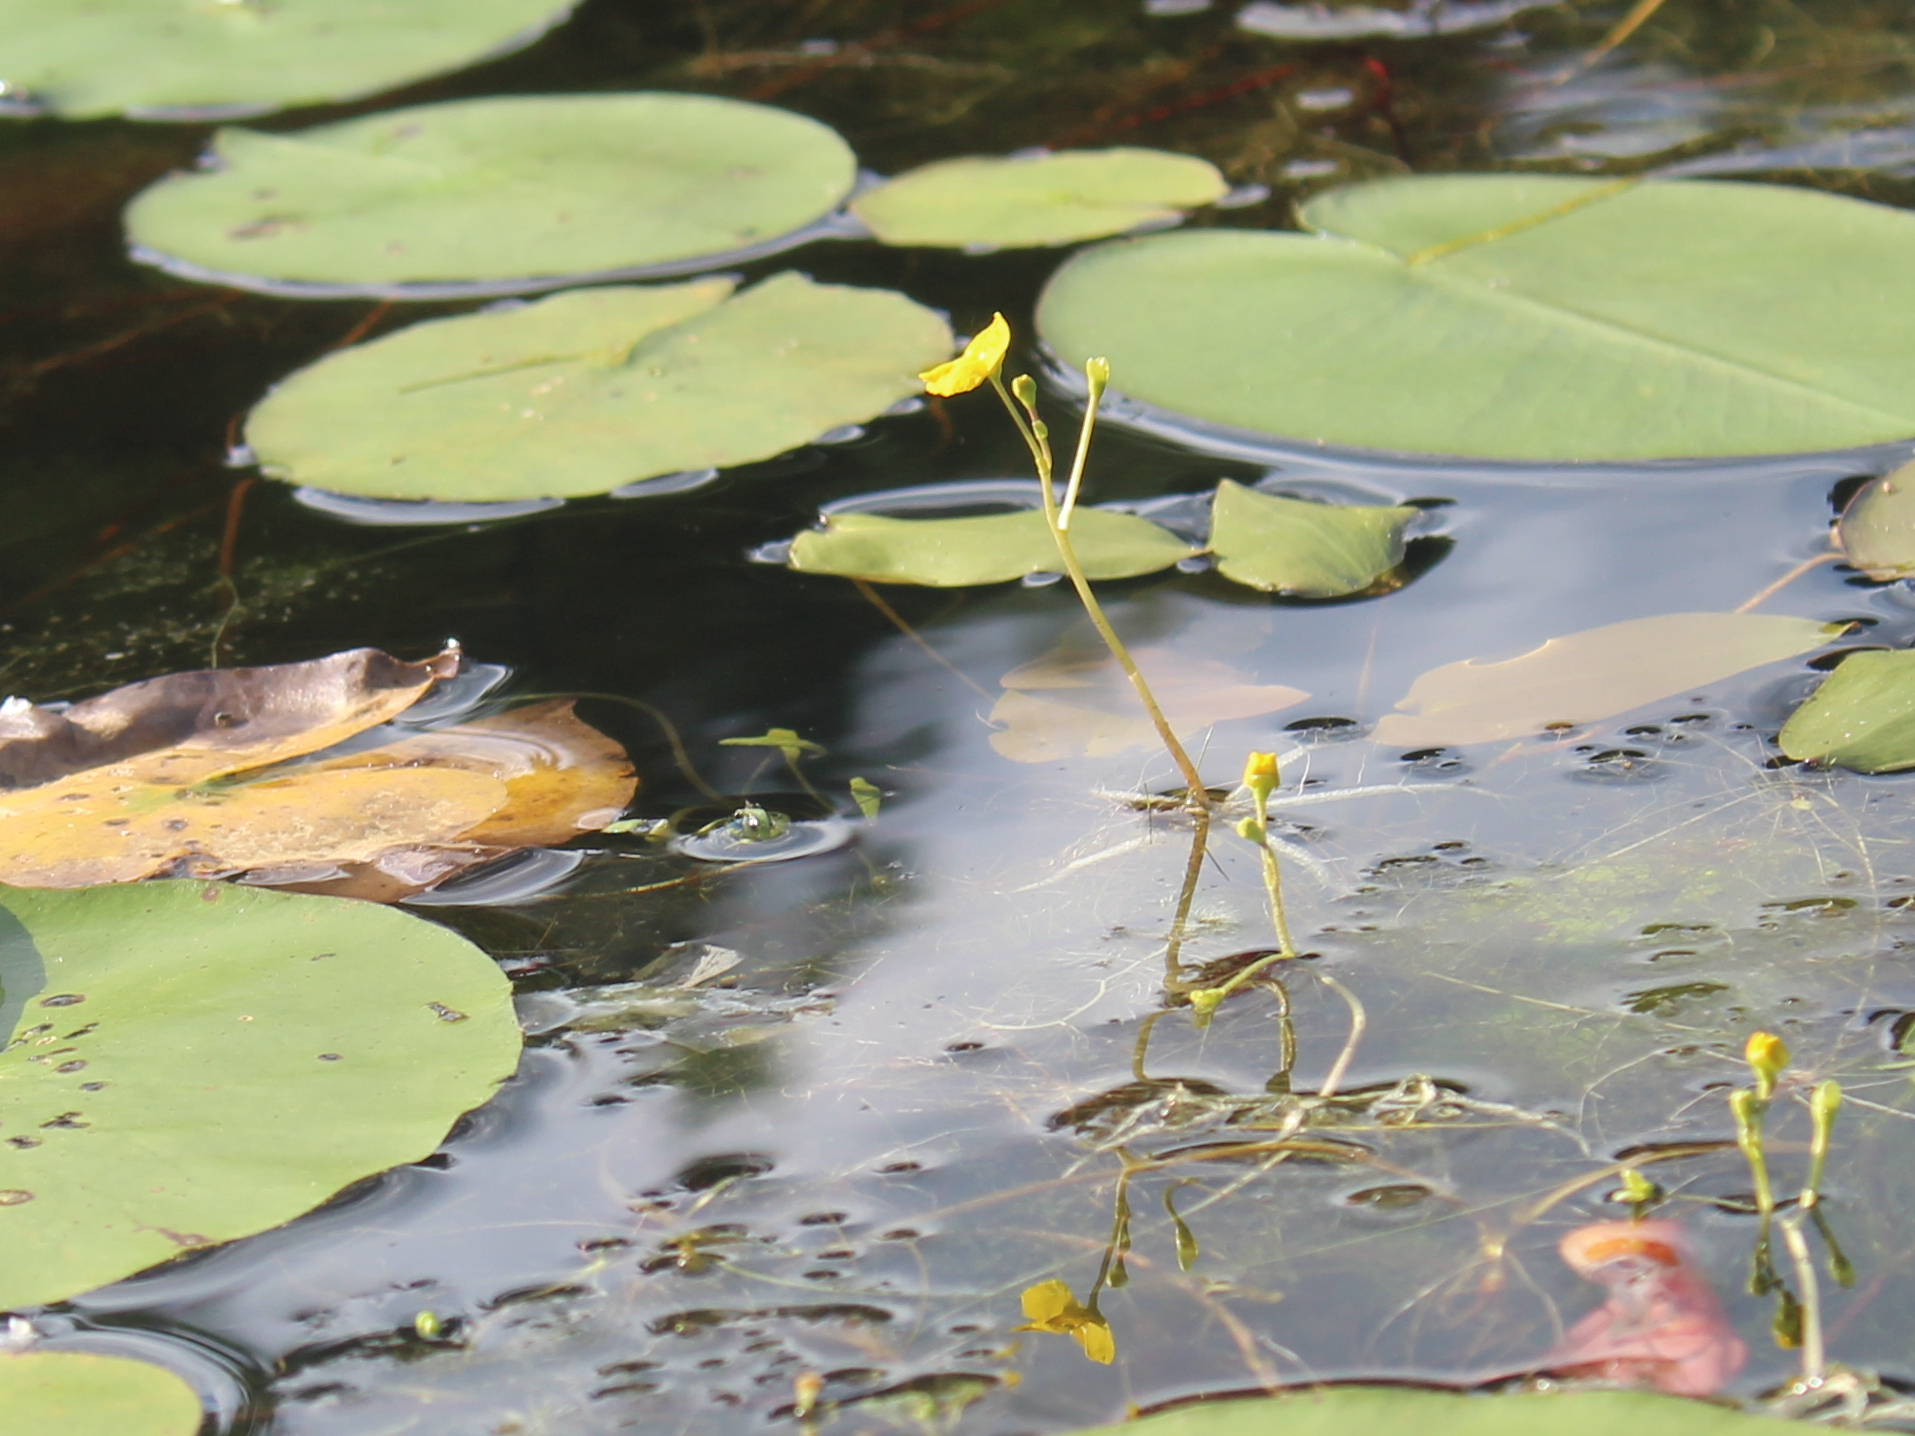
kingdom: Plantae
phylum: Tracheophyta
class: Magnoliopsida
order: Lamiales
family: Lentibulariaceae
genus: Utricularia
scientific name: Utricularia radiata
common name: Floating bladderwort
